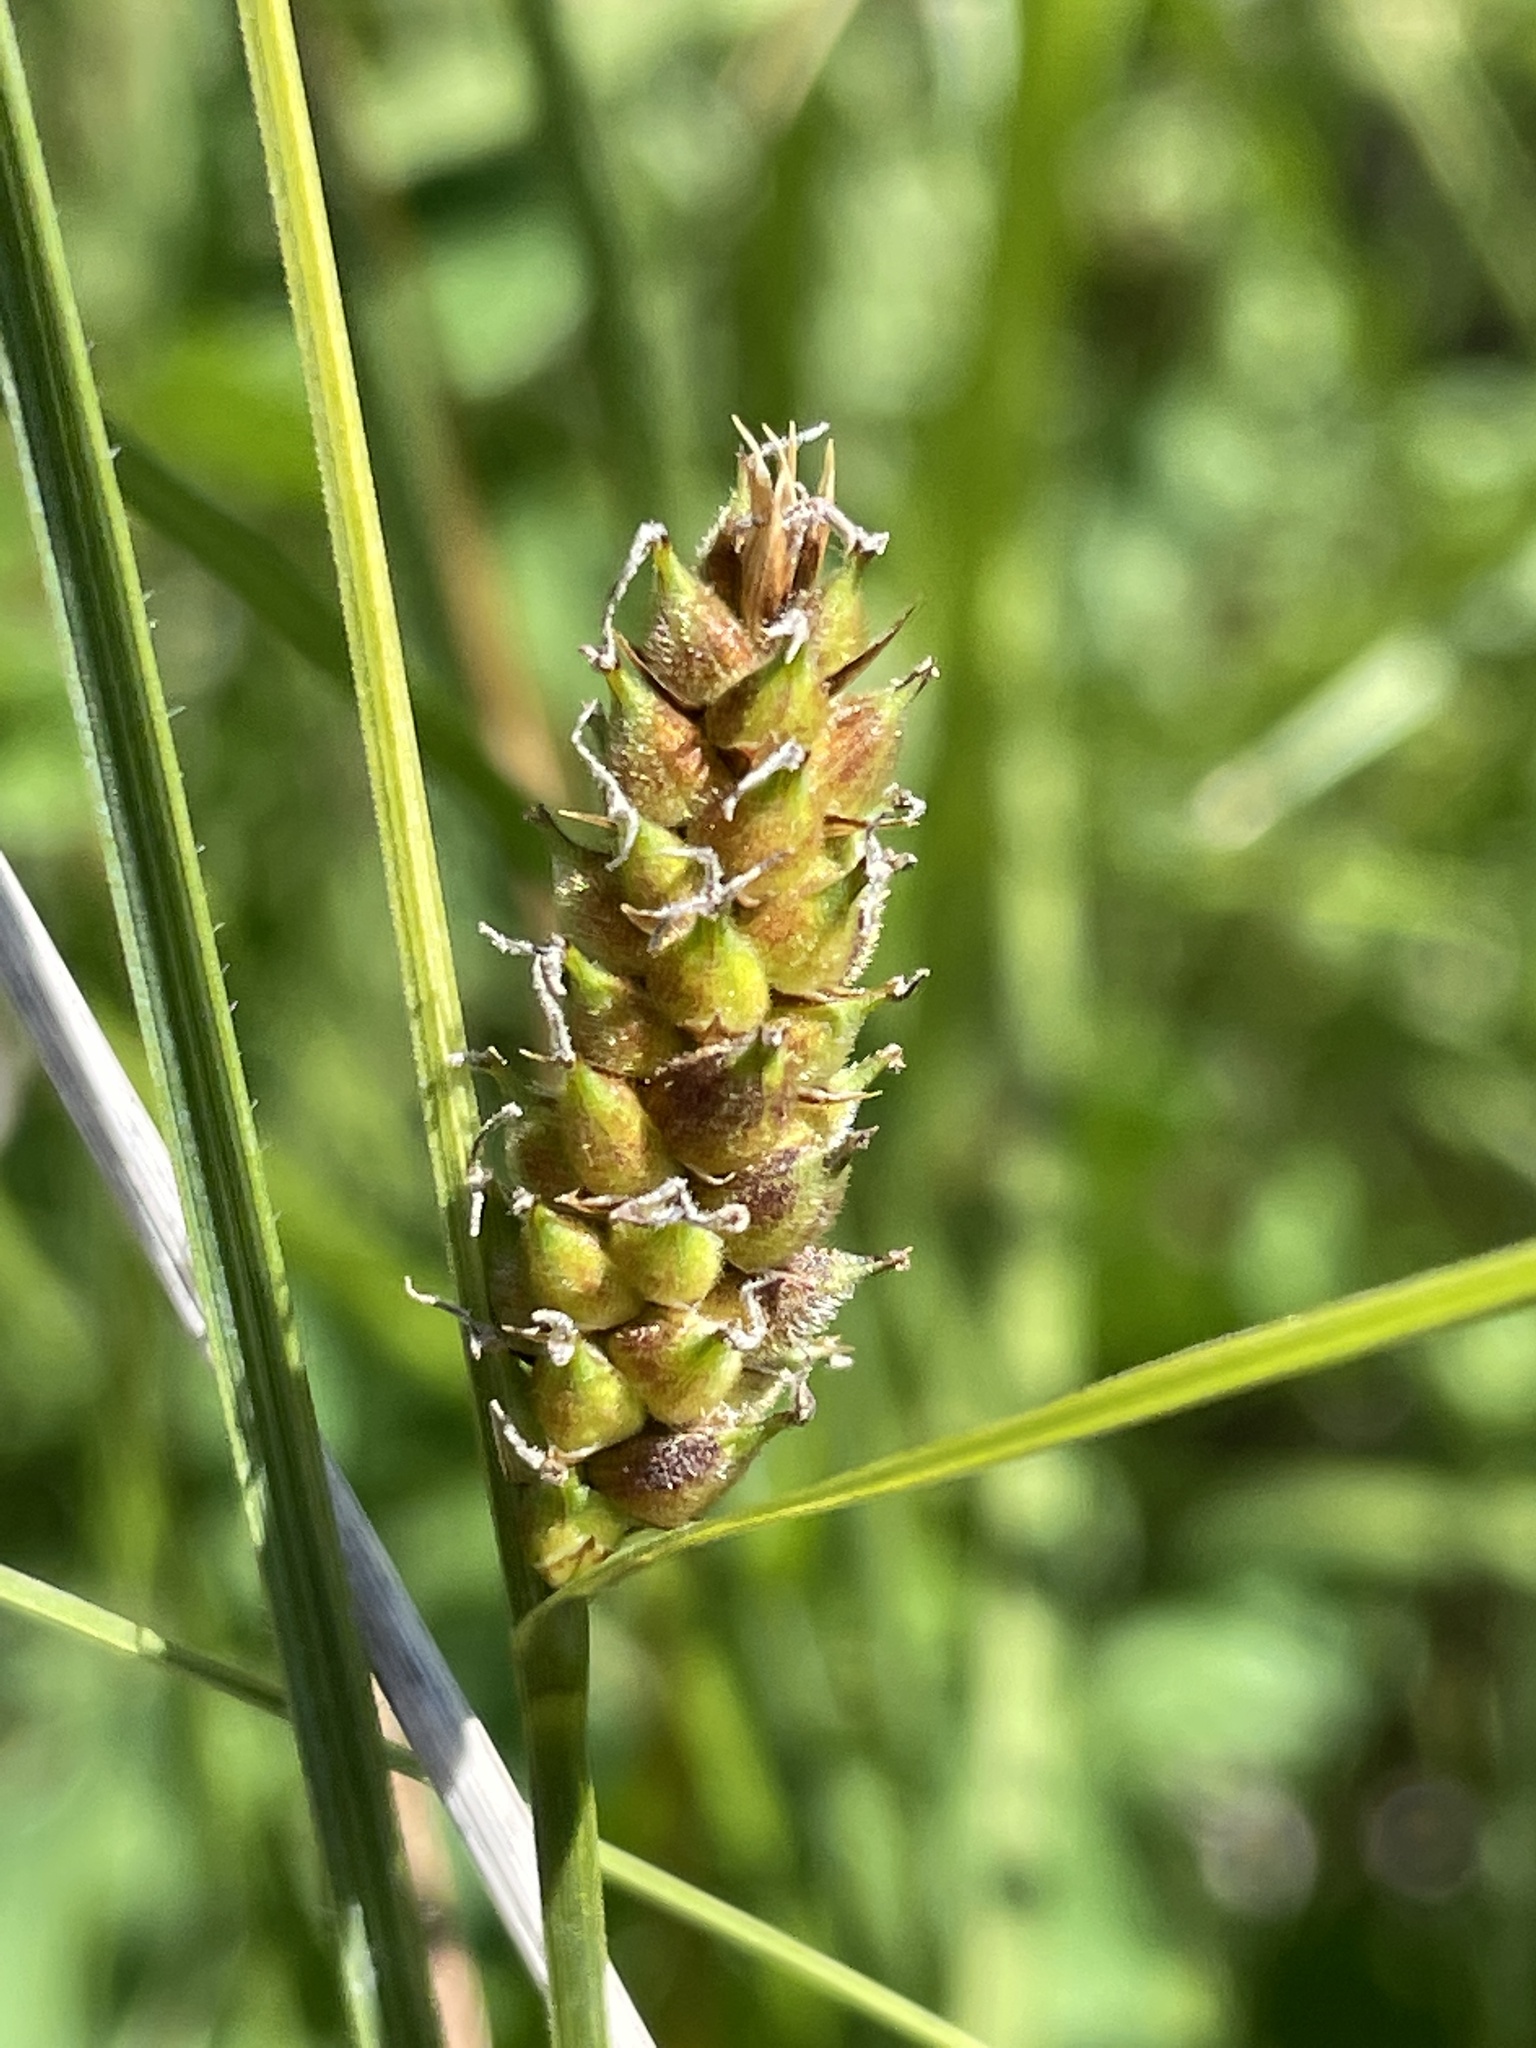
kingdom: Plantae
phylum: Tracheophyta
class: Liliopsida
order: Poales
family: Cyperaceae
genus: Carex
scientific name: Carex pellita
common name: Woolly sedge
